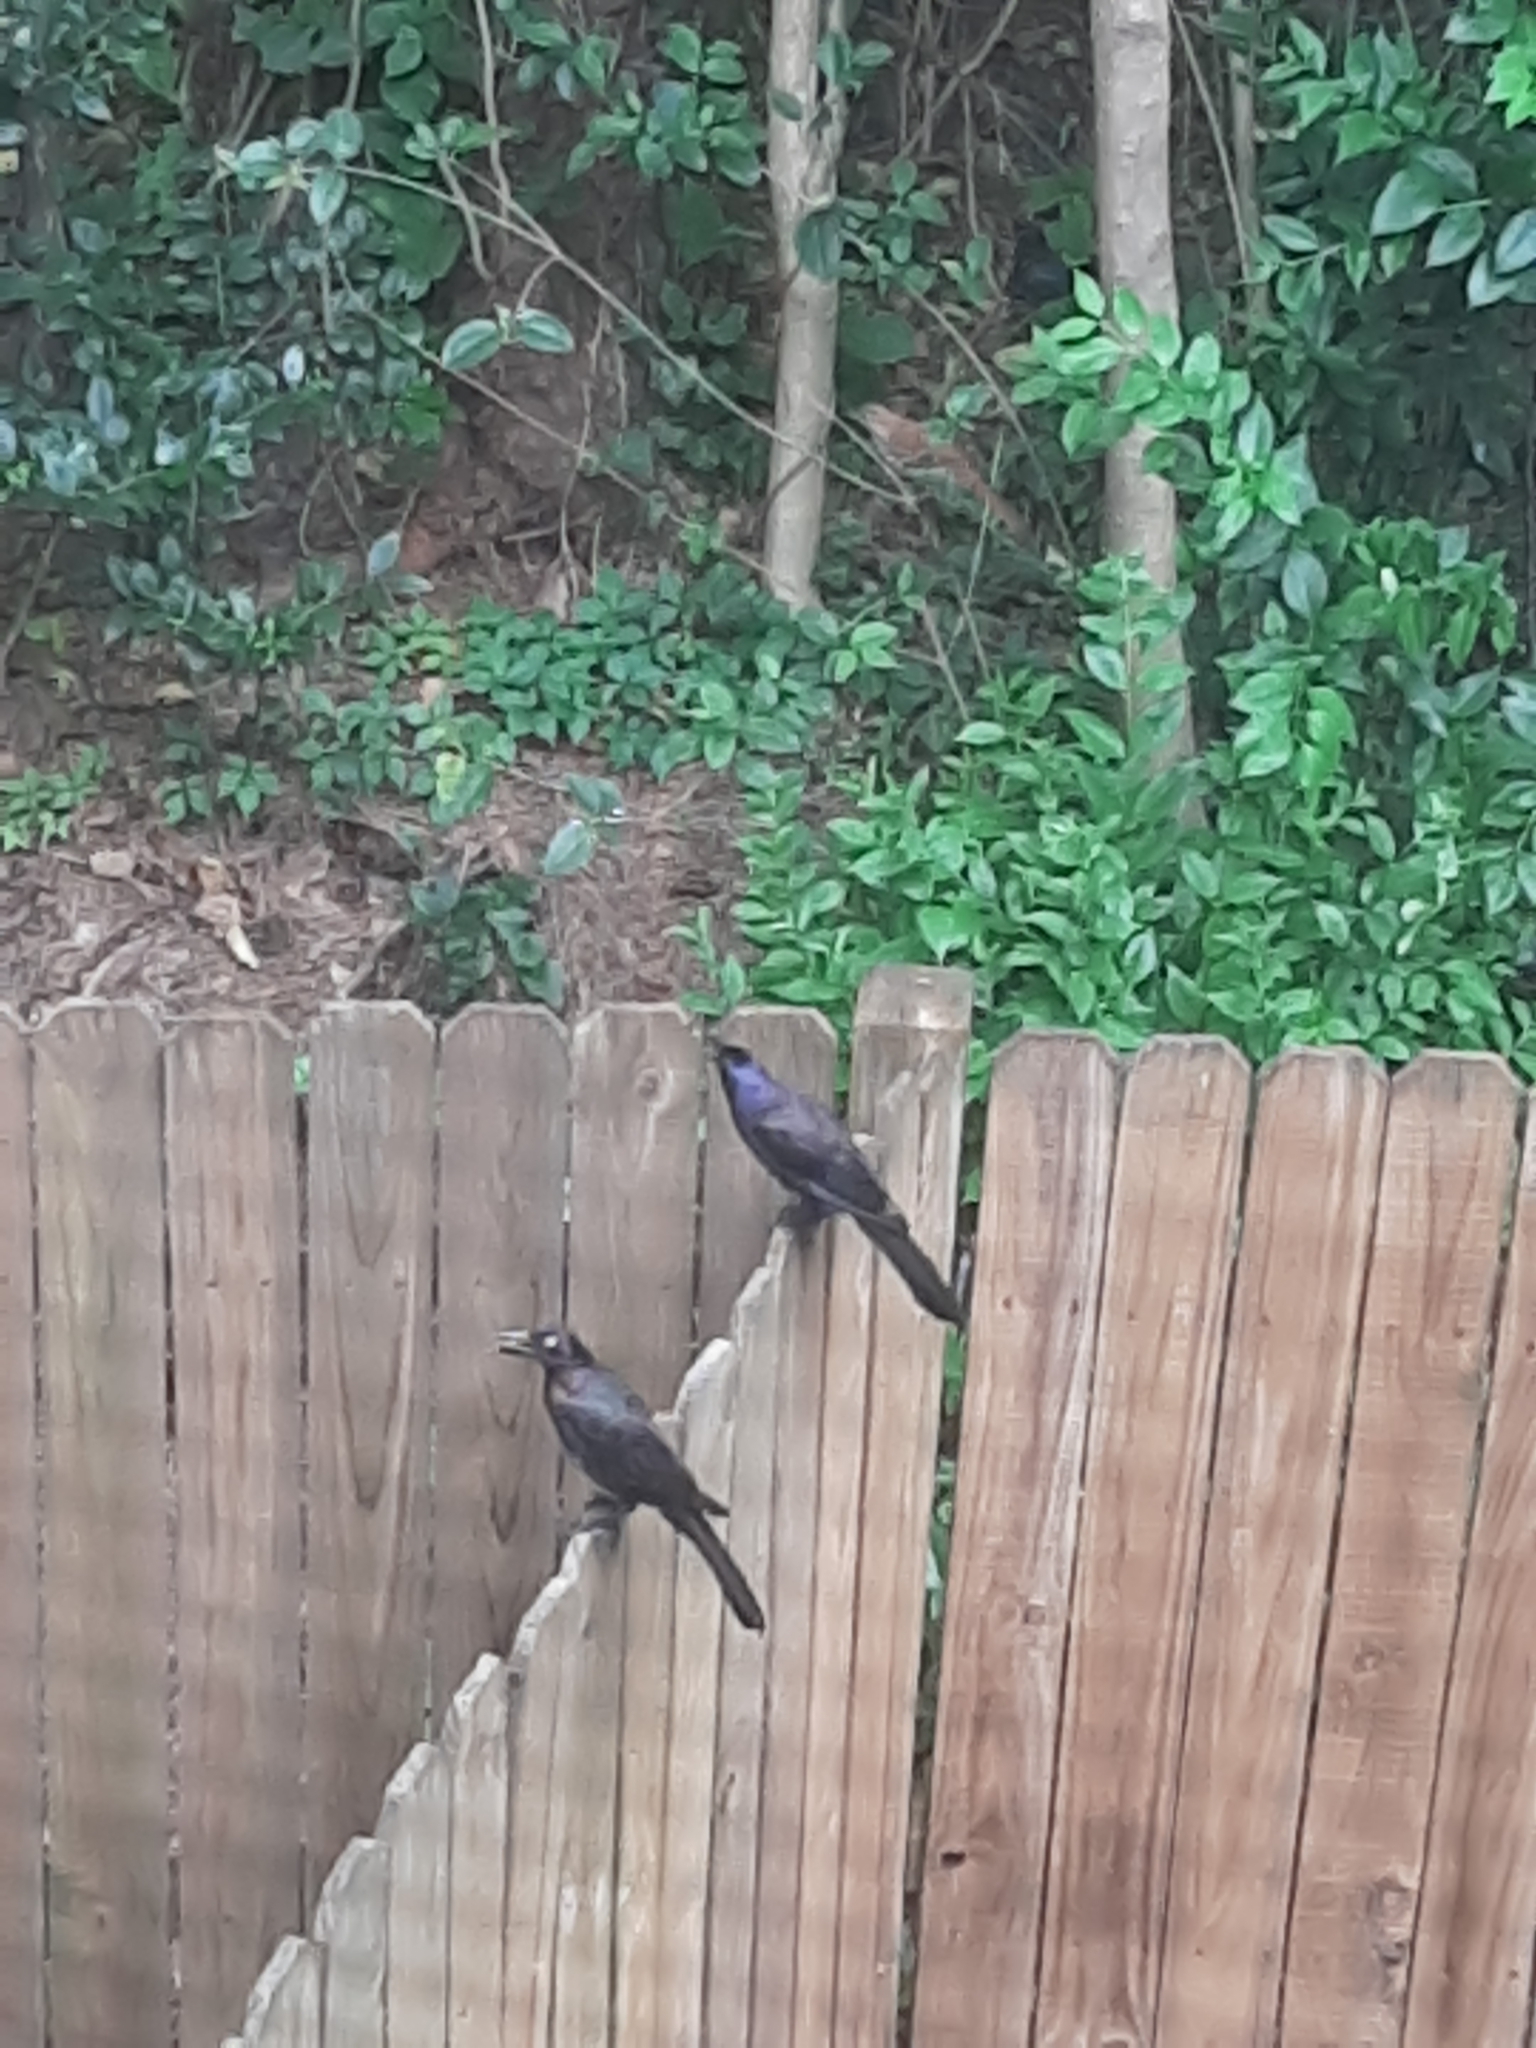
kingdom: Animalia
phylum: Chordata
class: Aves
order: Passeriformes
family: Icteridae
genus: Quiscalus
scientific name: Quiscalus quiscula
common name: Common grackle
